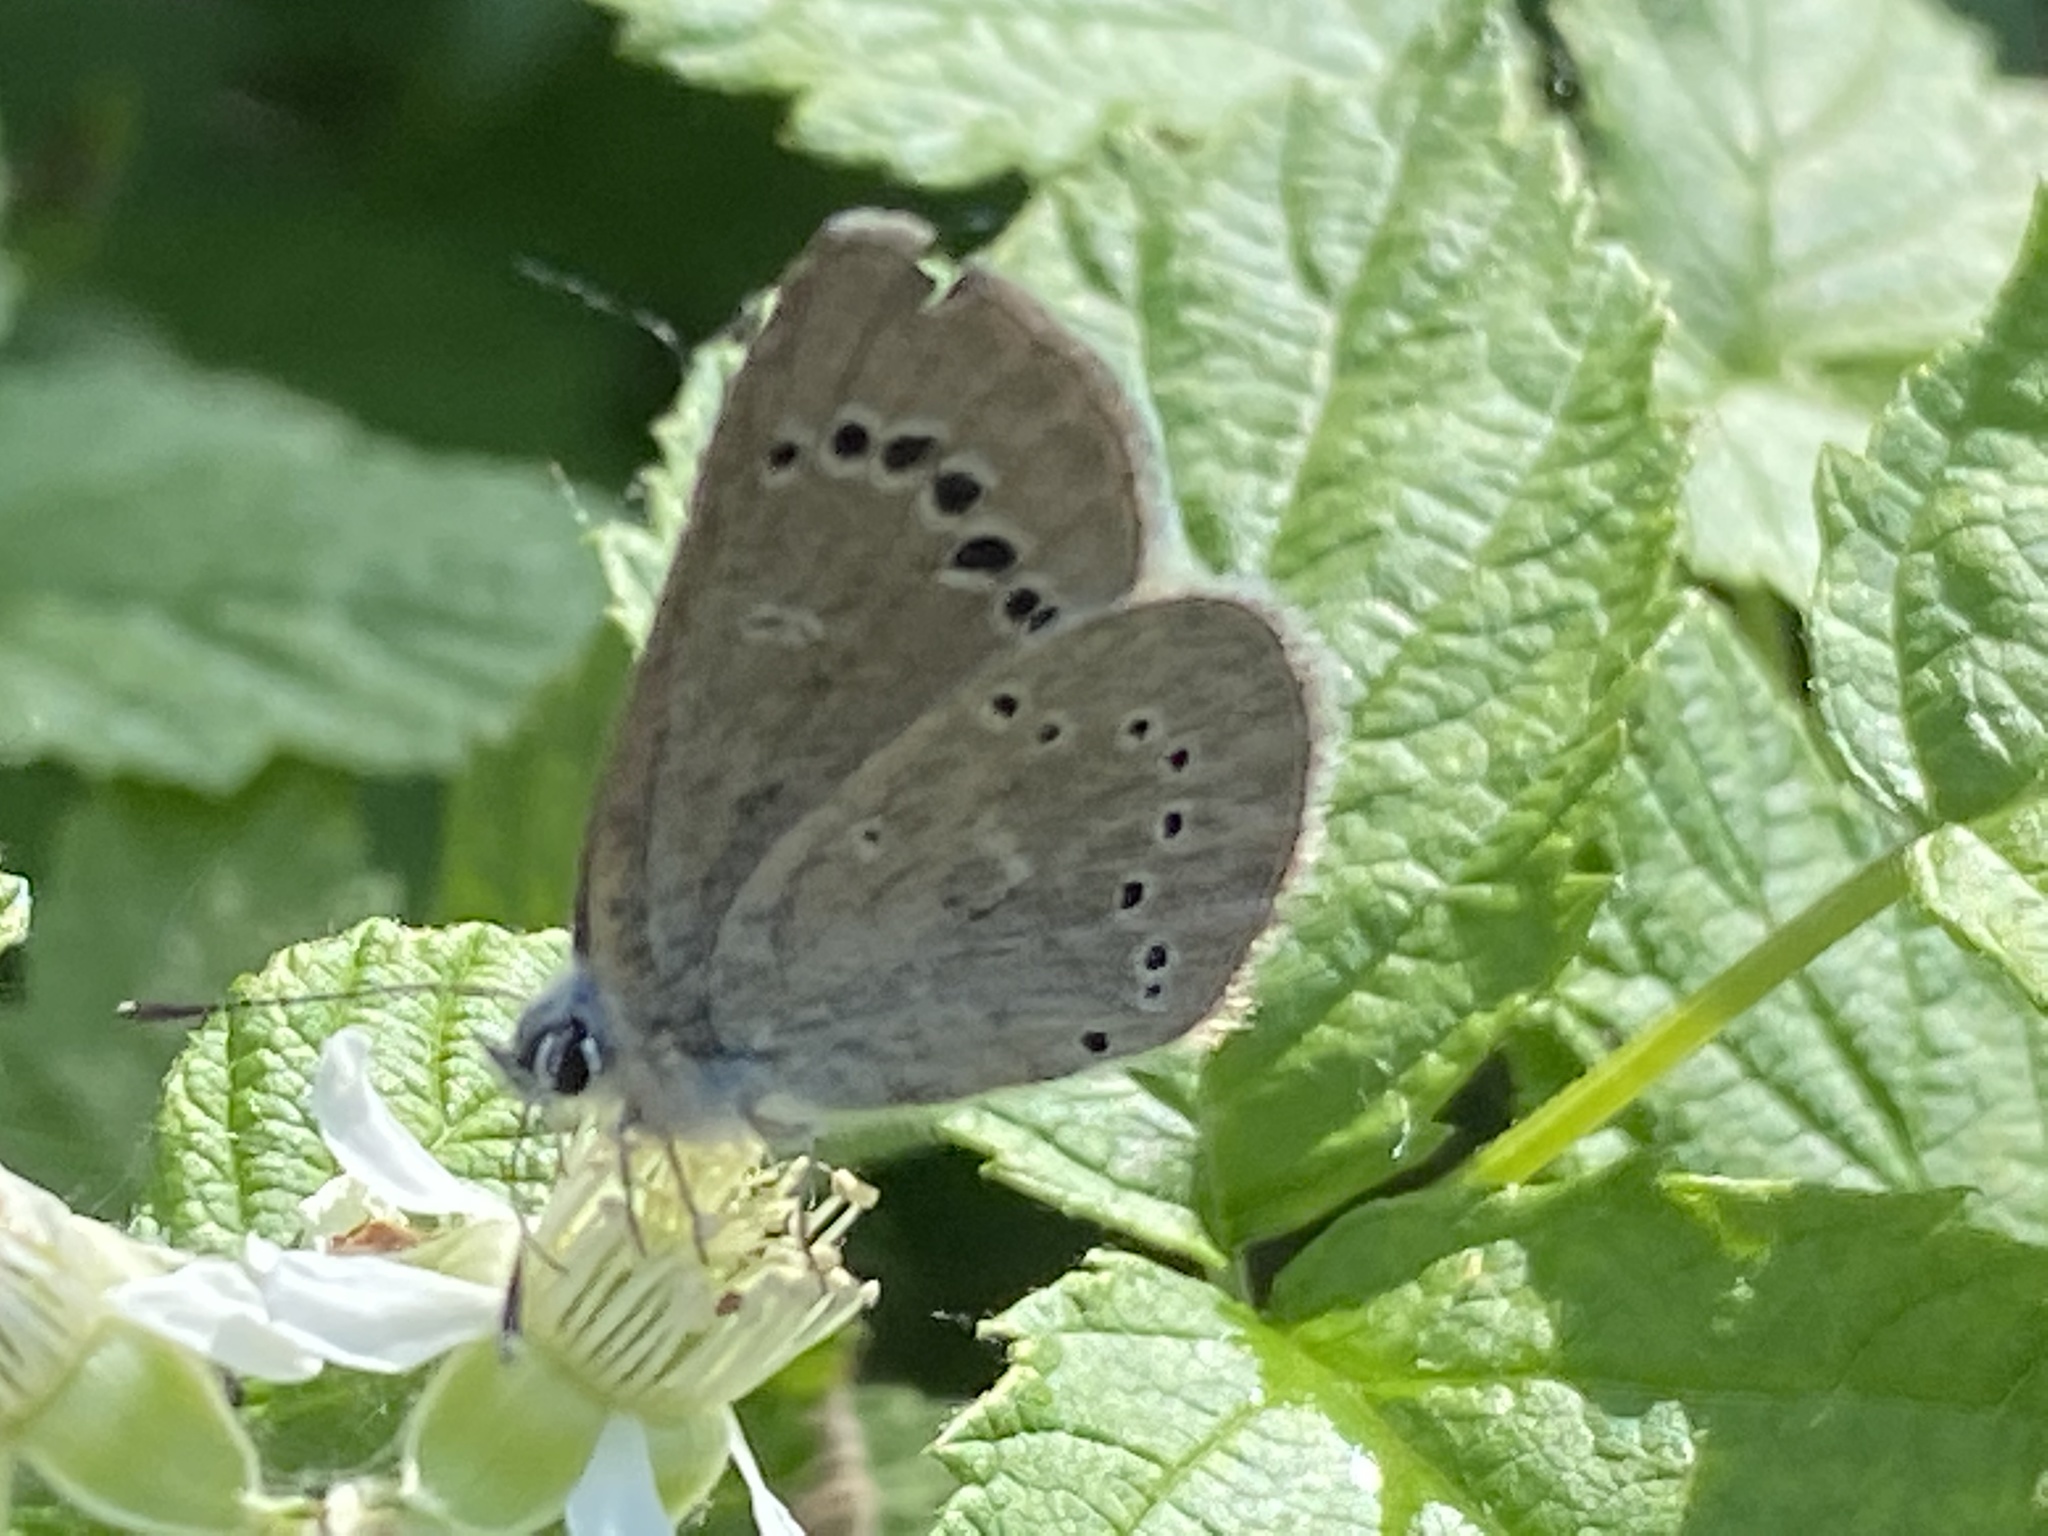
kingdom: Animalia
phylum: Arthropoda
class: Insecta
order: Lepidoptera
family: Lycaenidae
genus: Glaucopsyche
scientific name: Glaucopsyche lygdamus
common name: Silvery blue
